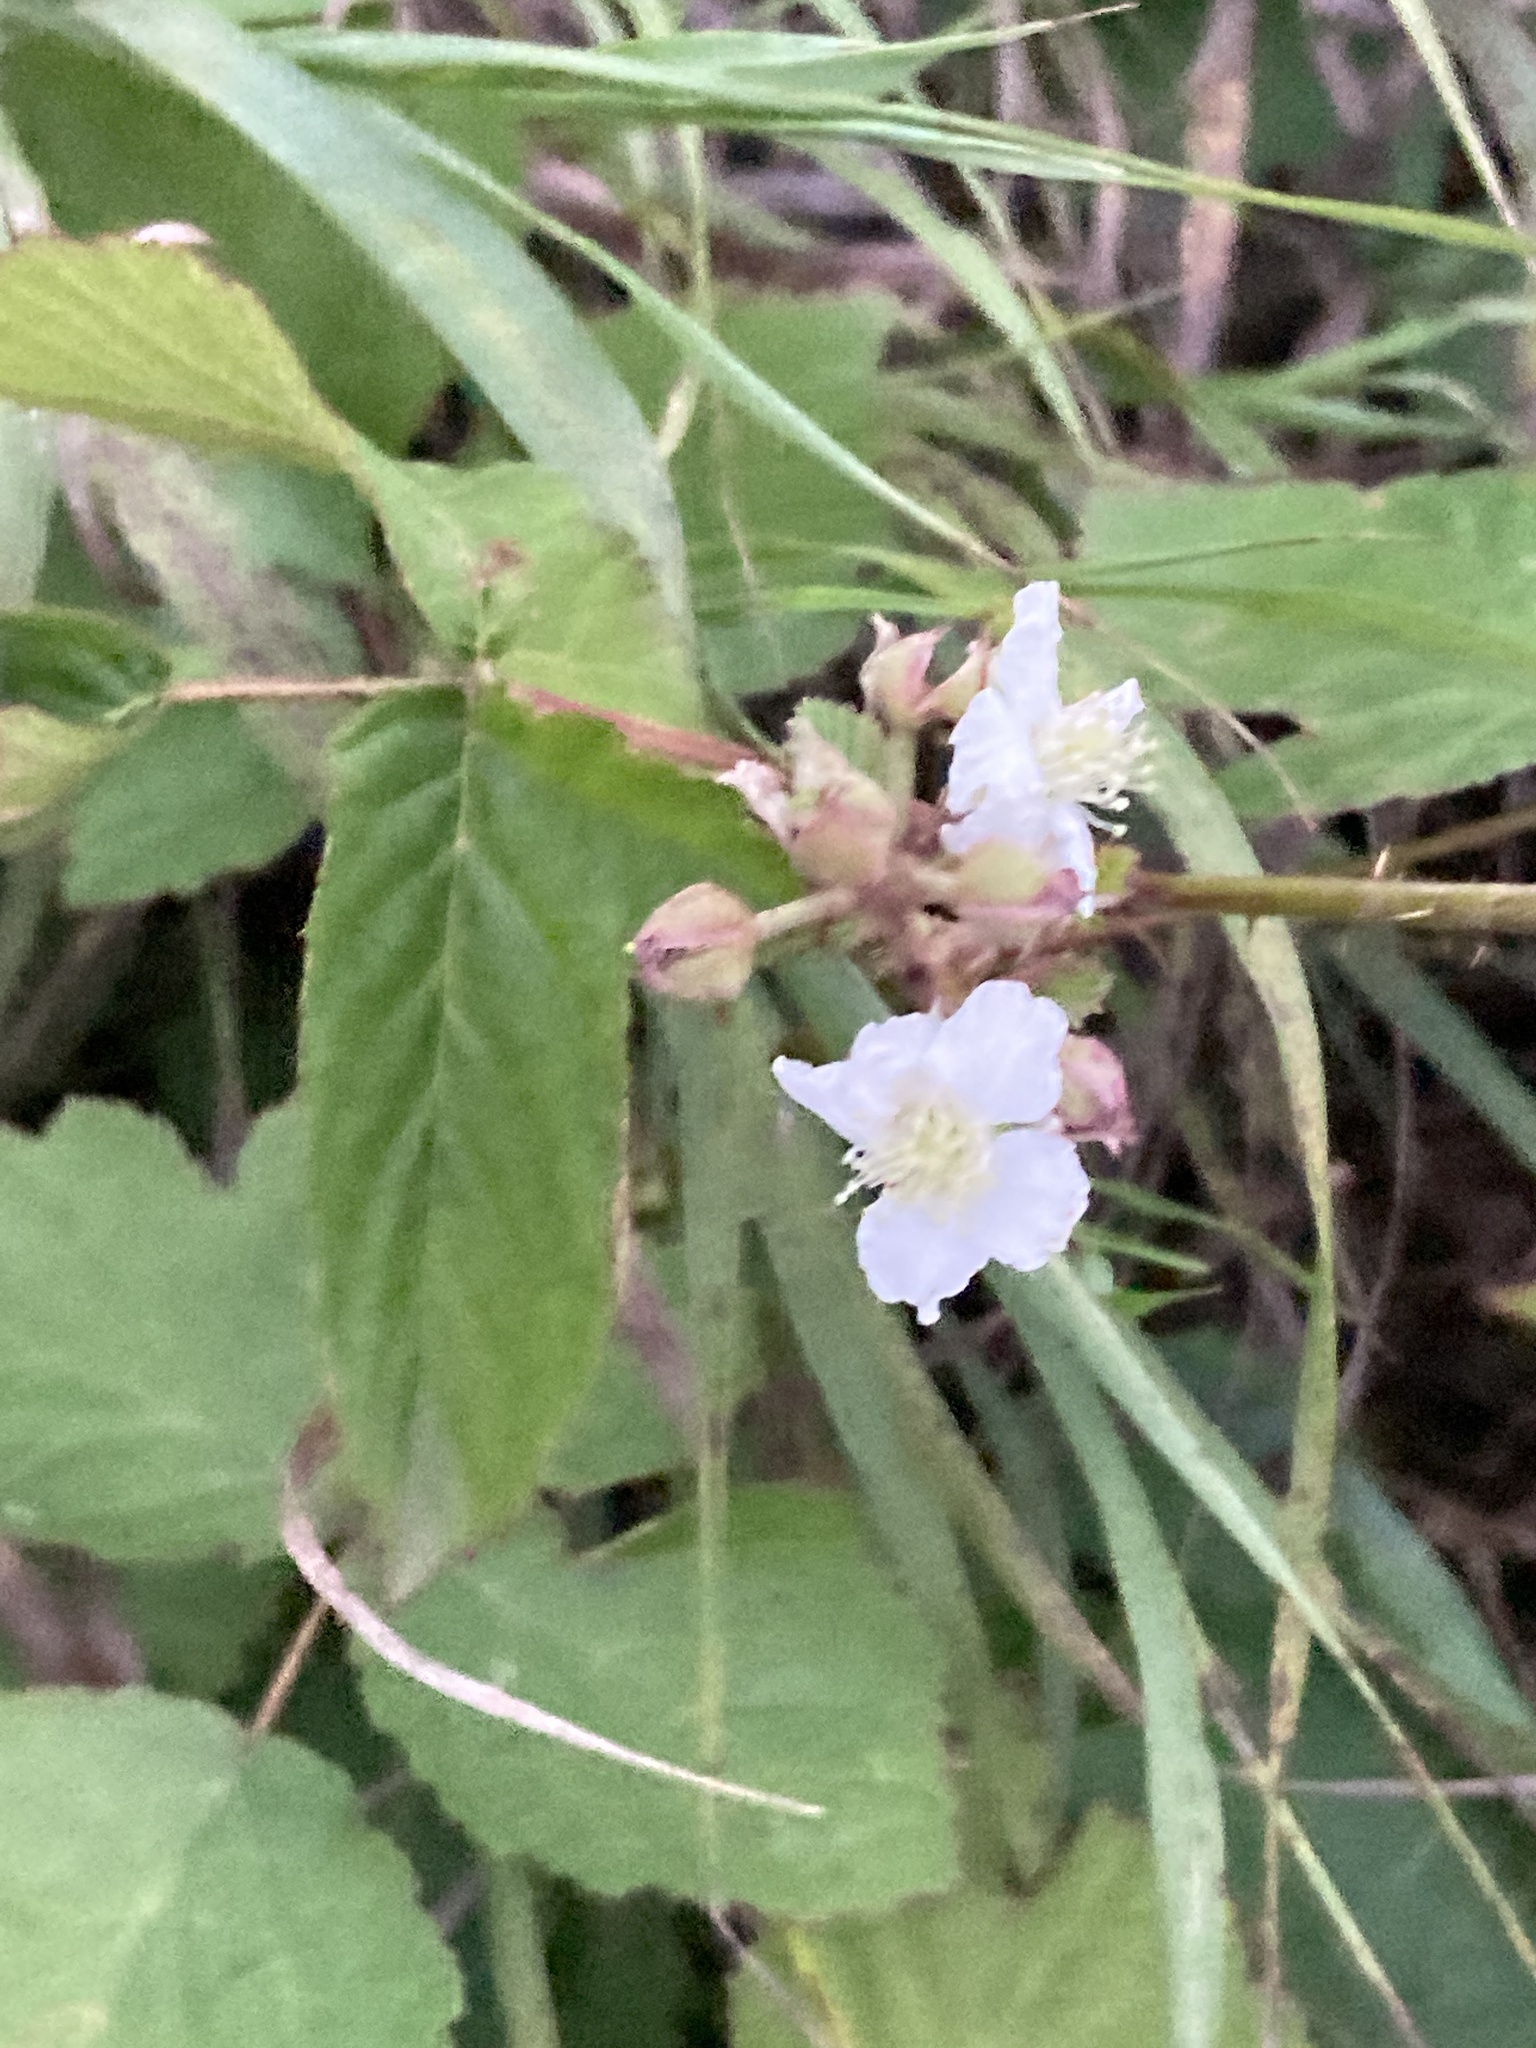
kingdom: Plantae
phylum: Tracheophyta
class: Magnoliopsida
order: Rosales
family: Rosaceae
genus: Rubus
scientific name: Rubus caesius
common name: Dewberry
